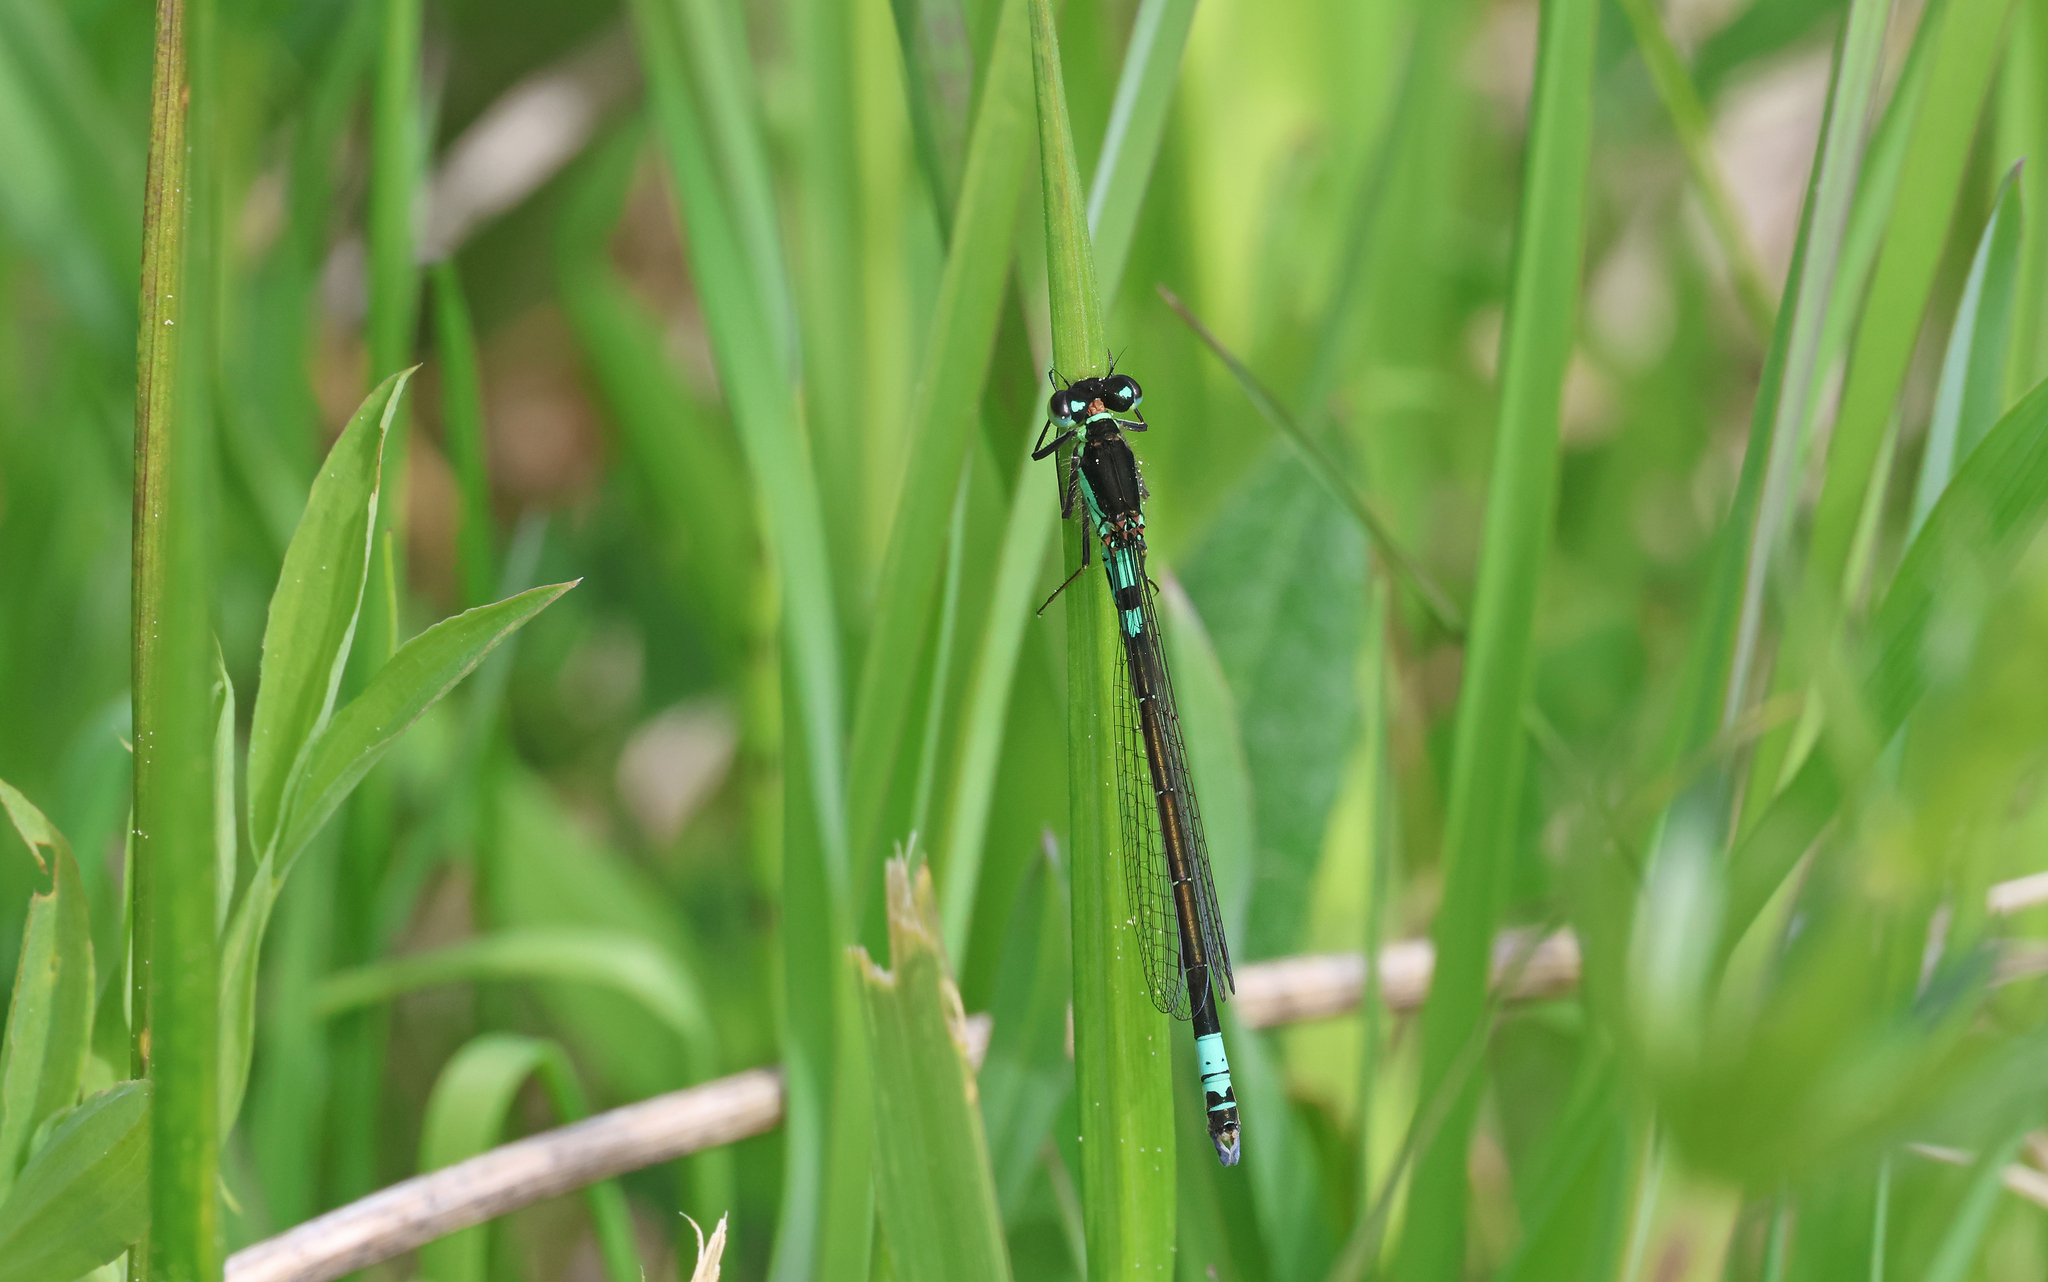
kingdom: Animalia
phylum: Arthropoda
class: Insecta
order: Odonata
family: Coenagrionidae
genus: Coenagrion
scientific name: Coenagrion armatum
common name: Dark bluet
